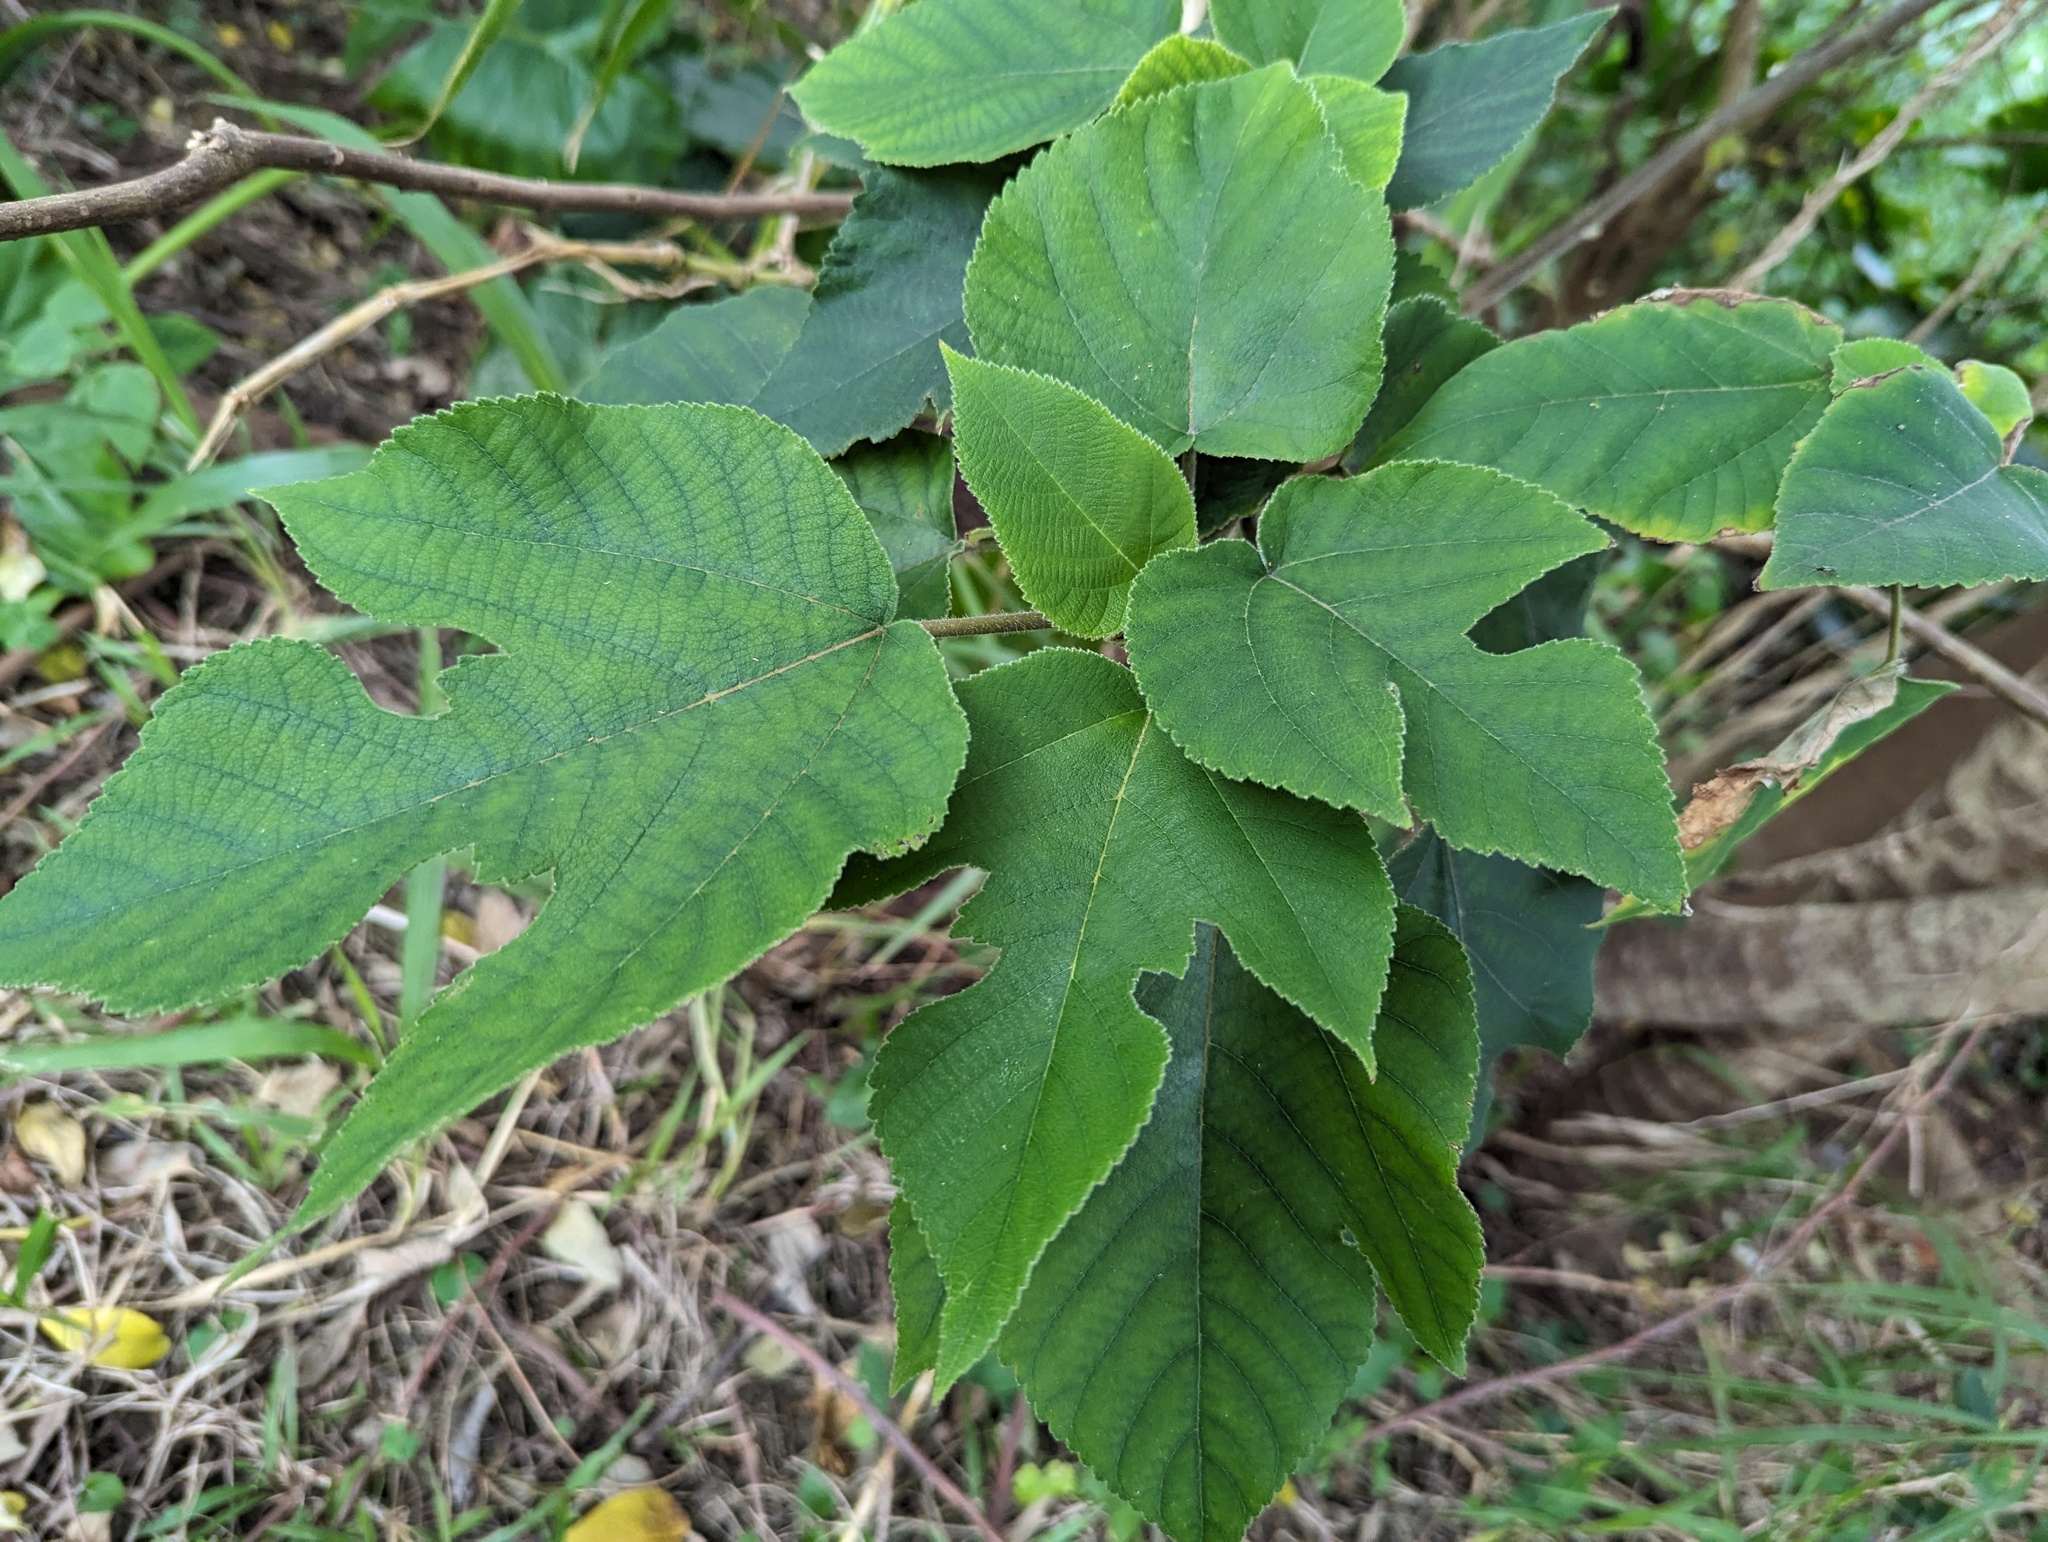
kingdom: Plantae
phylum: Tracheophyta
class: Magnoliopsida
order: Rosales
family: Moraceae
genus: Broussonetia
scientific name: Broussonetia papyrifera
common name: Paper mulberry
